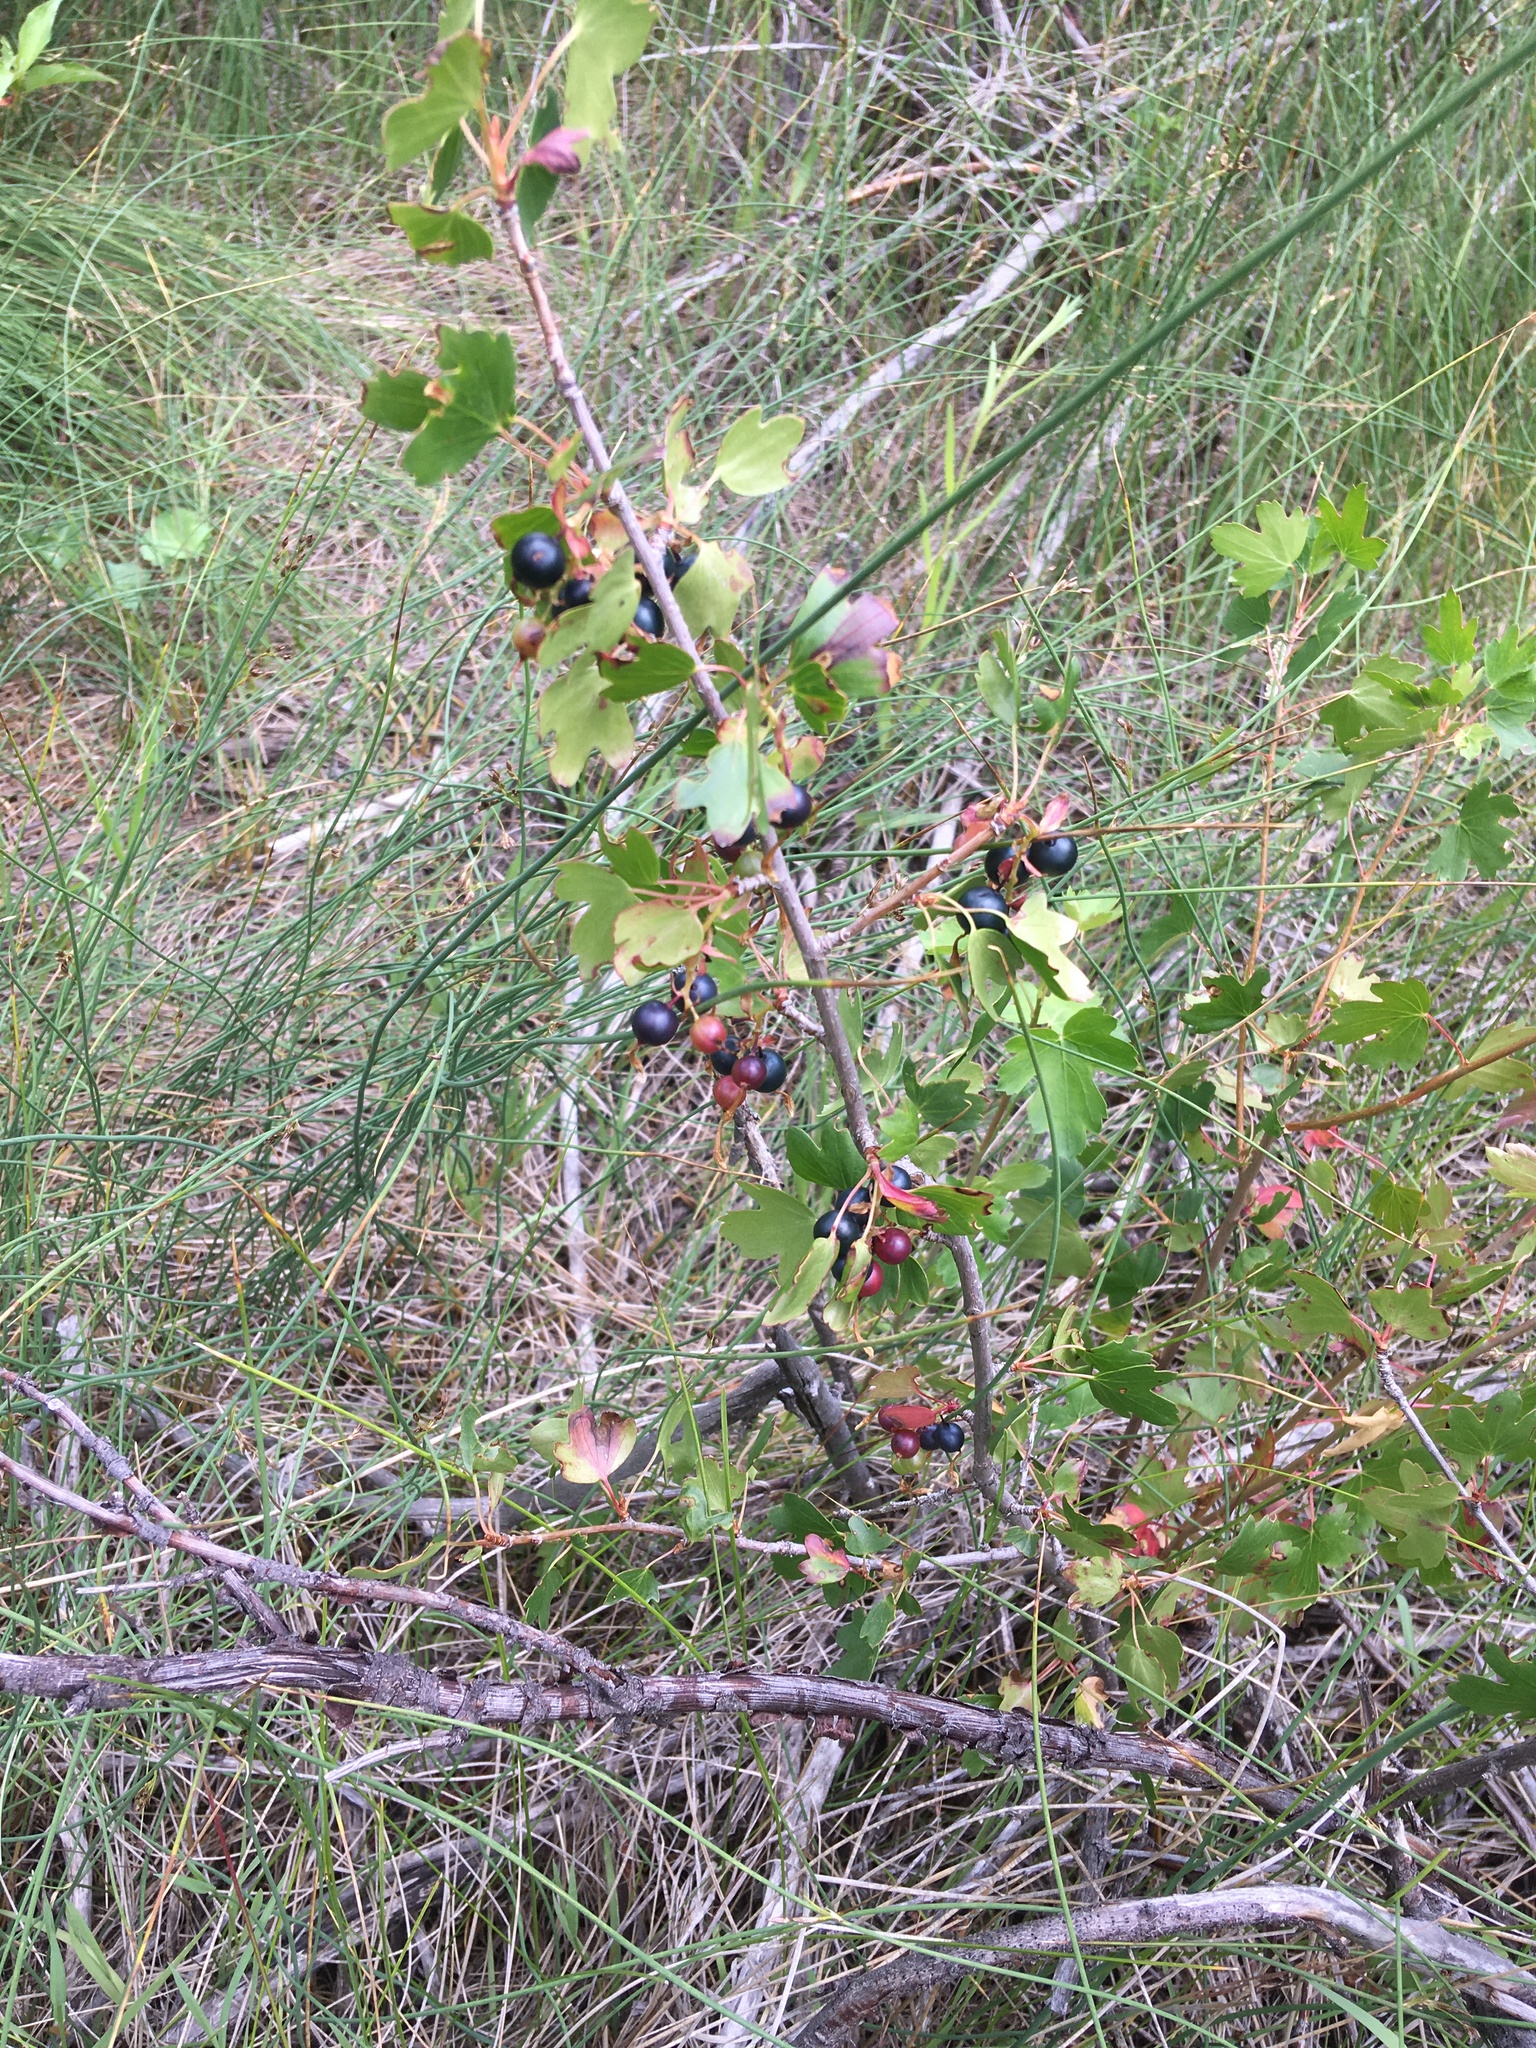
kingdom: Plantae
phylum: Tracheophyta
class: Magnoliopsida
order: Saxifragales
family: Grossulariaceae
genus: Ribes
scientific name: Ribes aureum
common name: Golden currant
